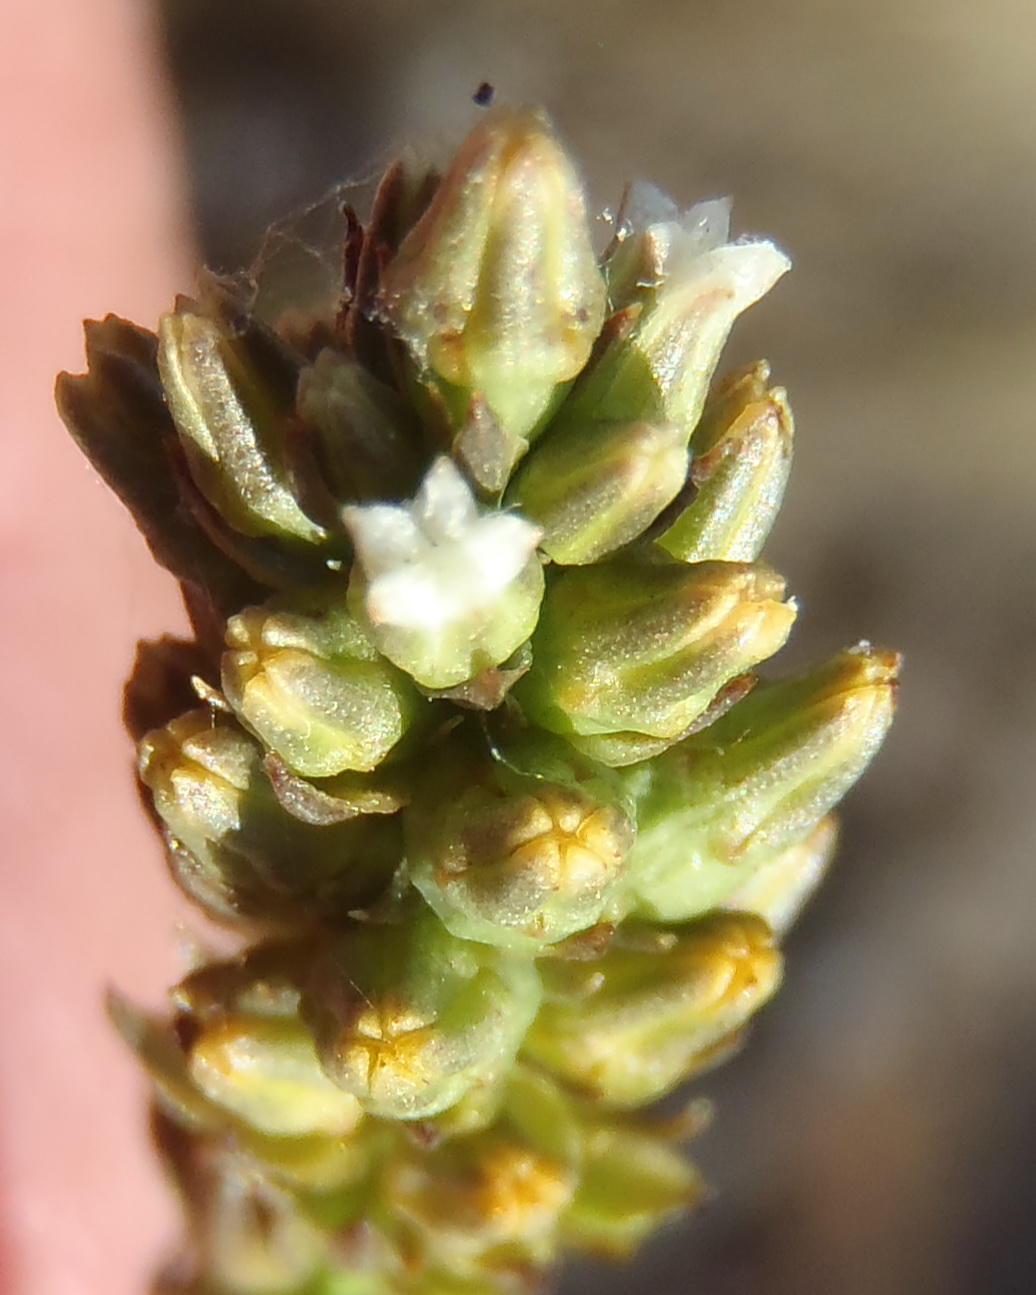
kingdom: Plantae
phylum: Tracheophyta
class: Magnoliopsida
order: Santalales
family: Thesiaceae
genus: Thesium
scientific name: Thesium aggregatum
